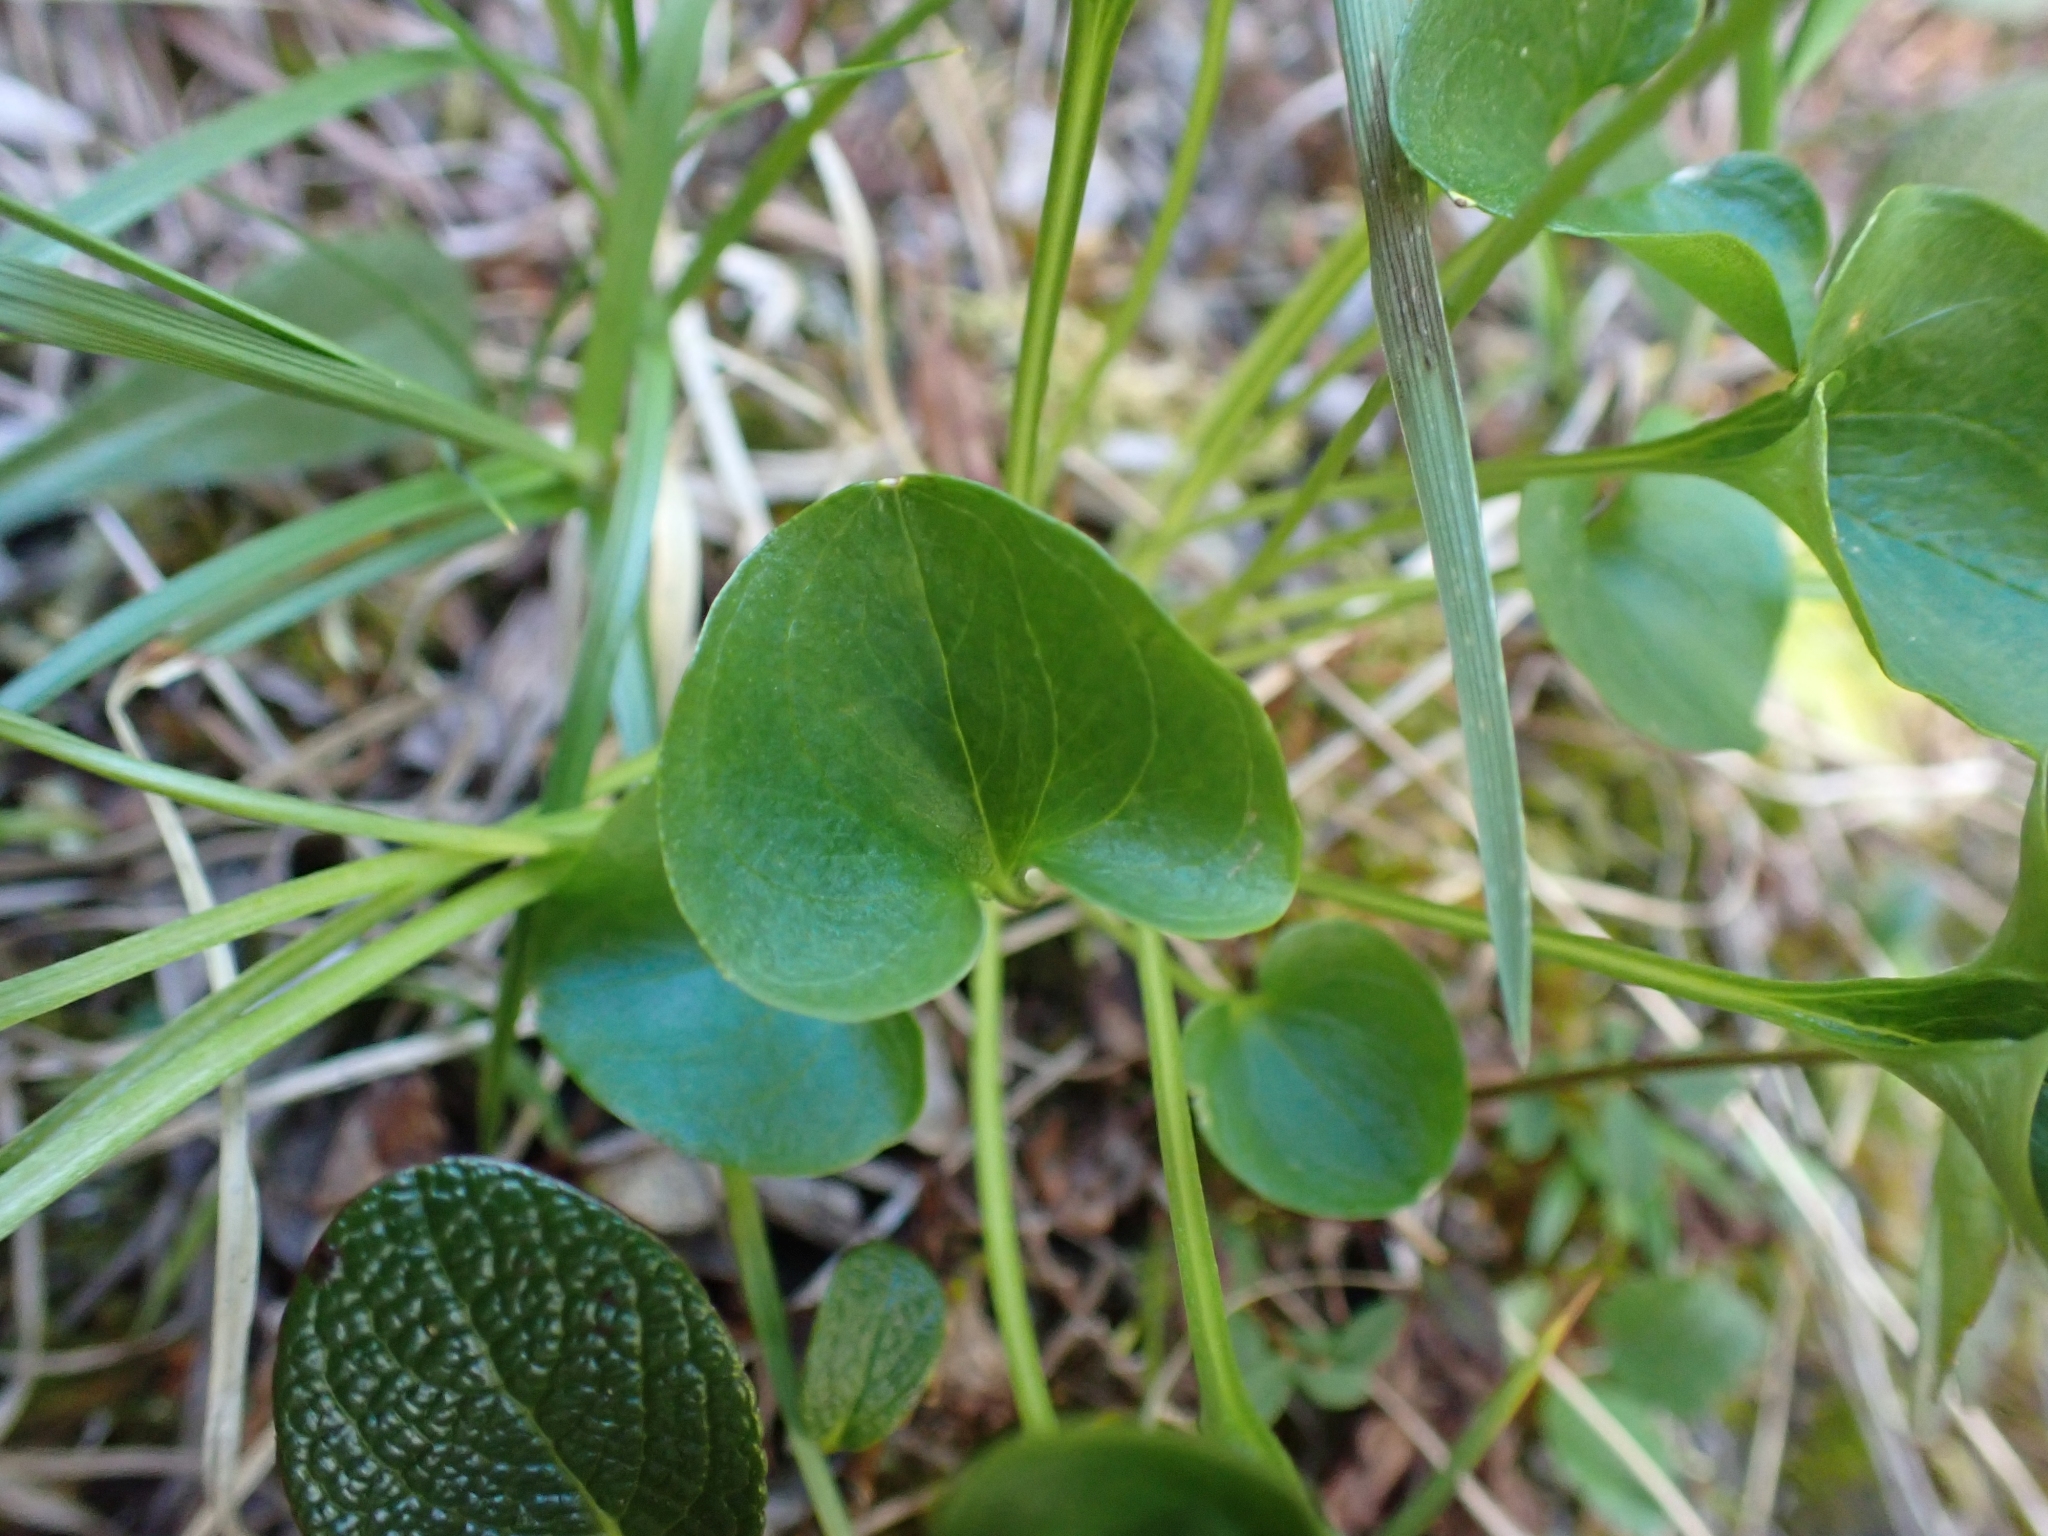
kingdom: Plantae
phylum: Tracheophyta
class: Magnoliopsida
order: Celastrales
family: Parnassiaceae
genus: Parnassia
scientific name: Parnassia fimbriata
